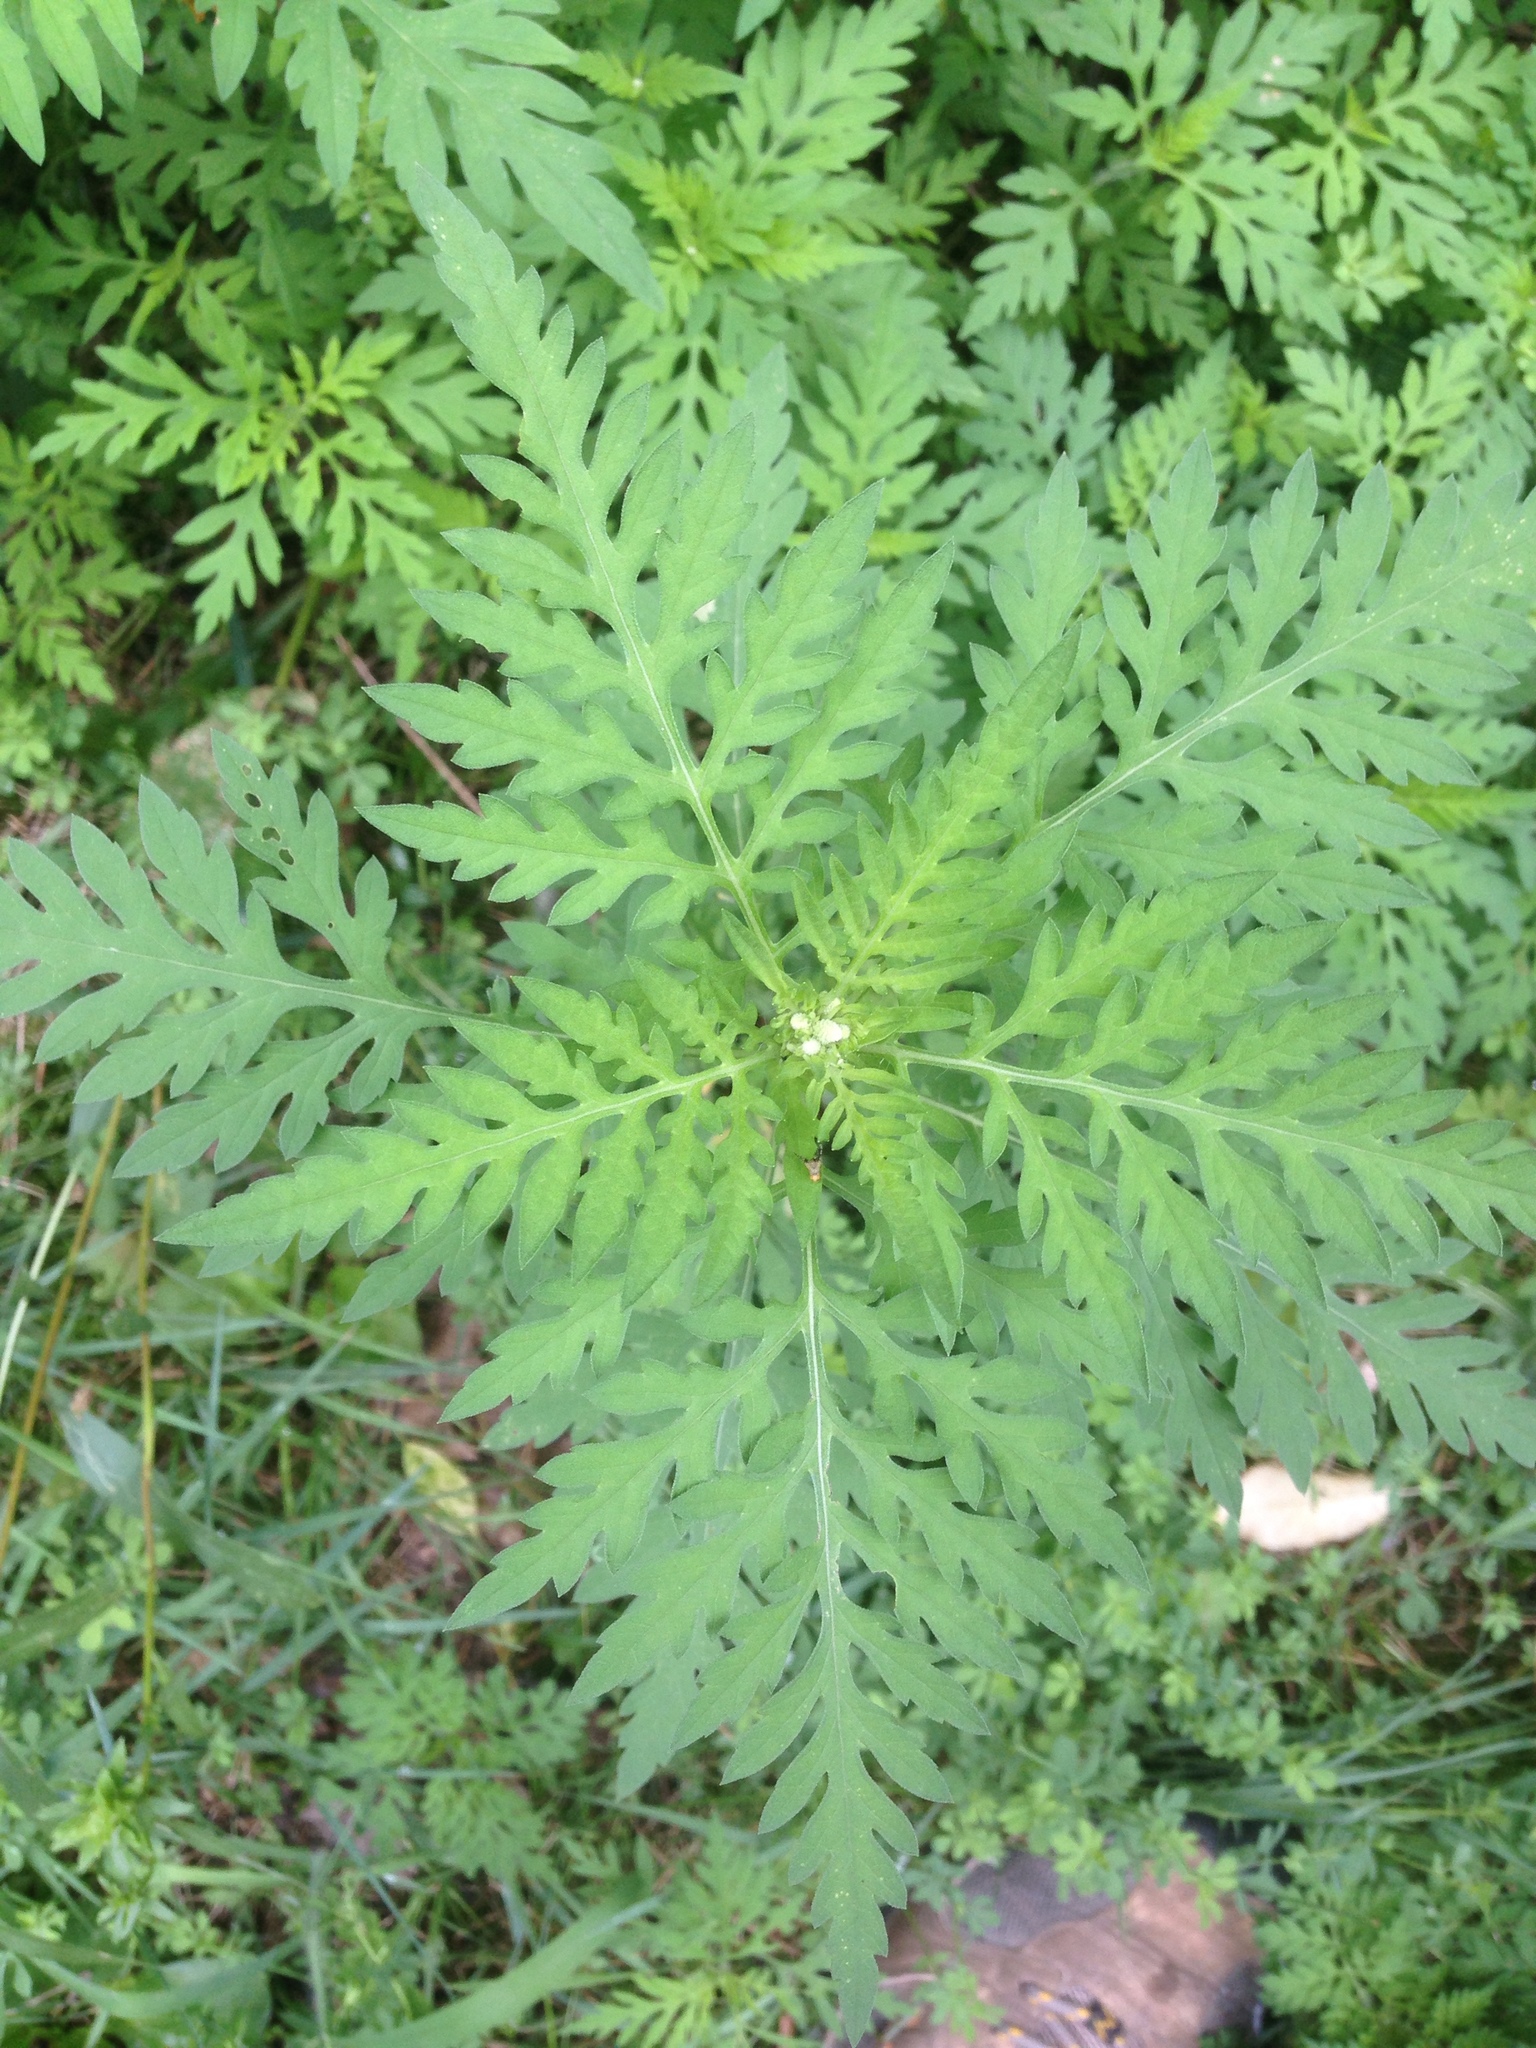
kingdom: Plantae
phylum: Tracheophyta
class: Magnoliopsida
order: Asterales
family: Asteraceae
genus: Ambrosia
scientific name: Ambrosia artemisiifolia
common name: Annual ragweed
